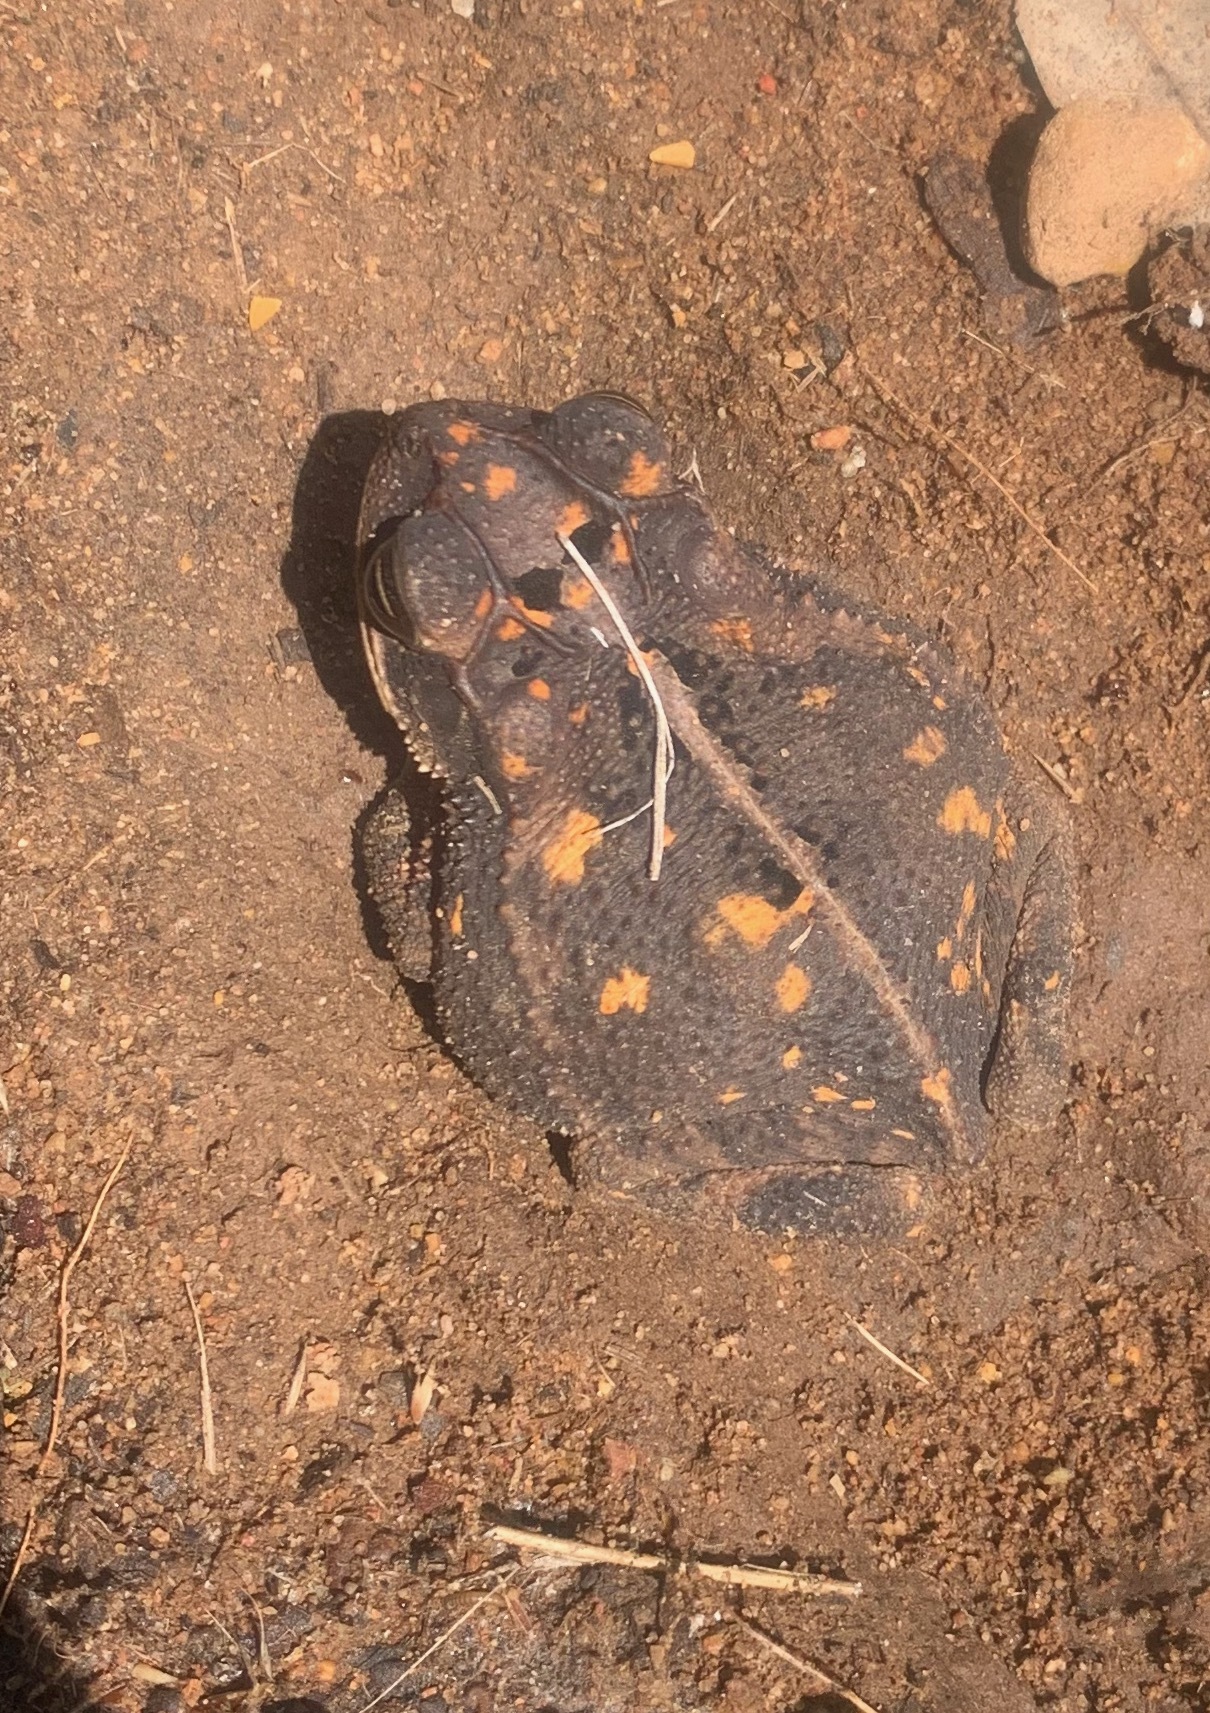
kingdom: Animalia
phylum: Chordata
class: Amphibia
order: Anura
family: Bufonidae
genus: Incilius
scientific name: Incilius nebulifer
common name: Gulf coast toad
